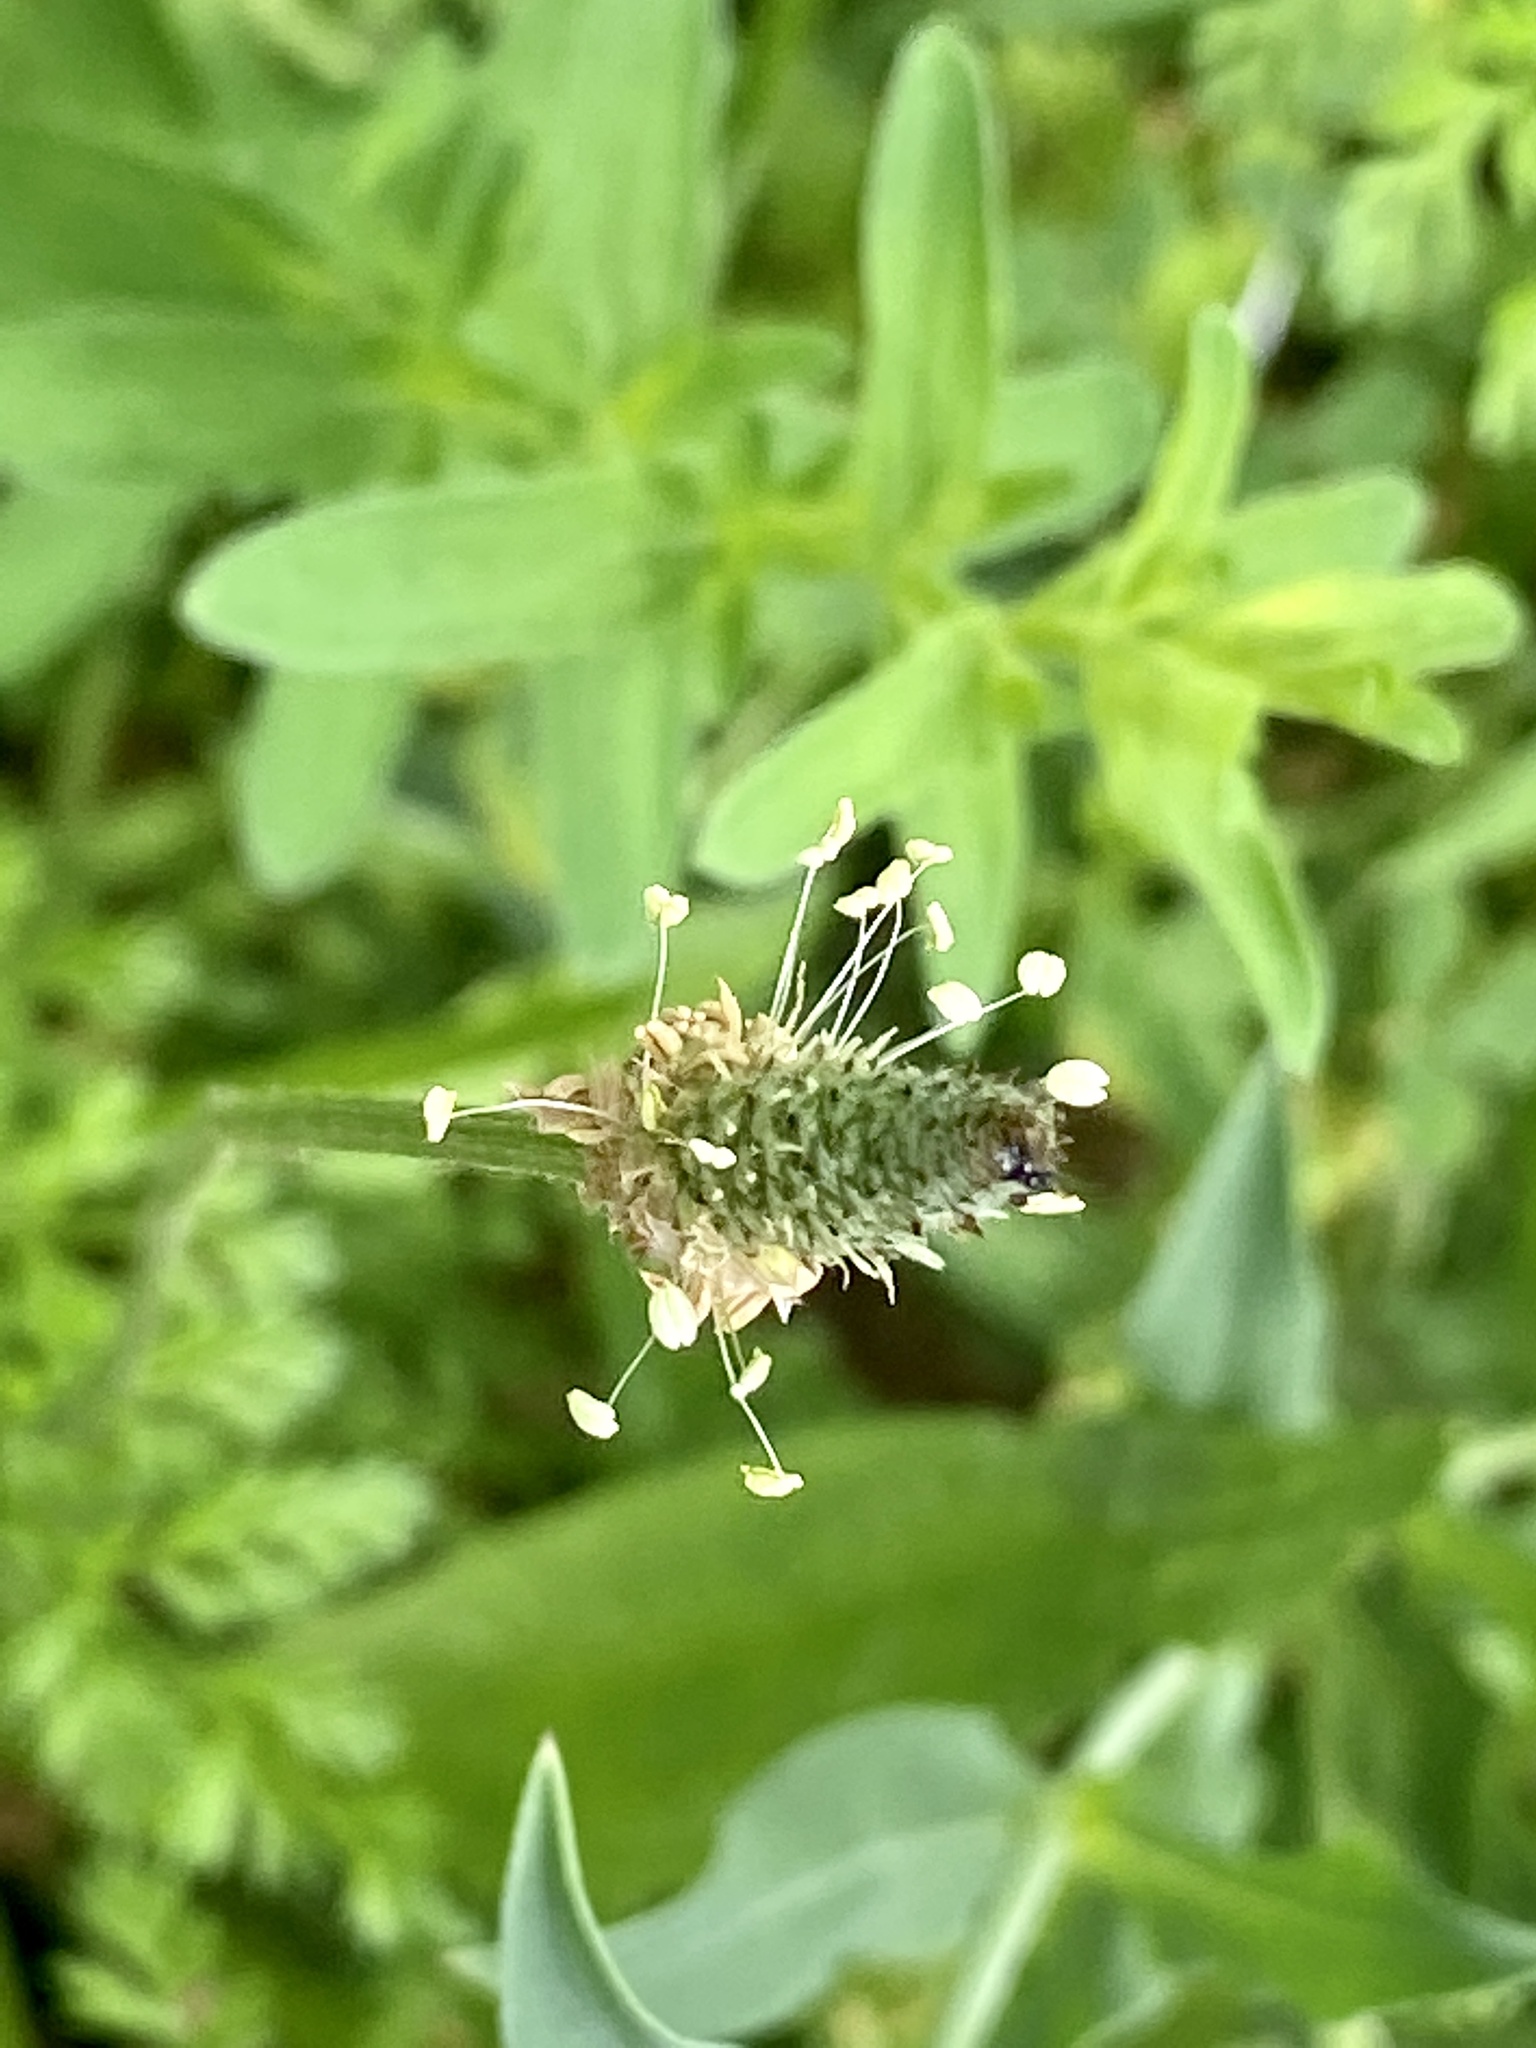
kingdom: Plantae
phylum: Tracheophyta
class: Magnoliopsida
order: Lamiales
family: Plantaginaceae
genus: Plantago
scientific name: Plantago lanceolata
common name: Ribwort plantain
